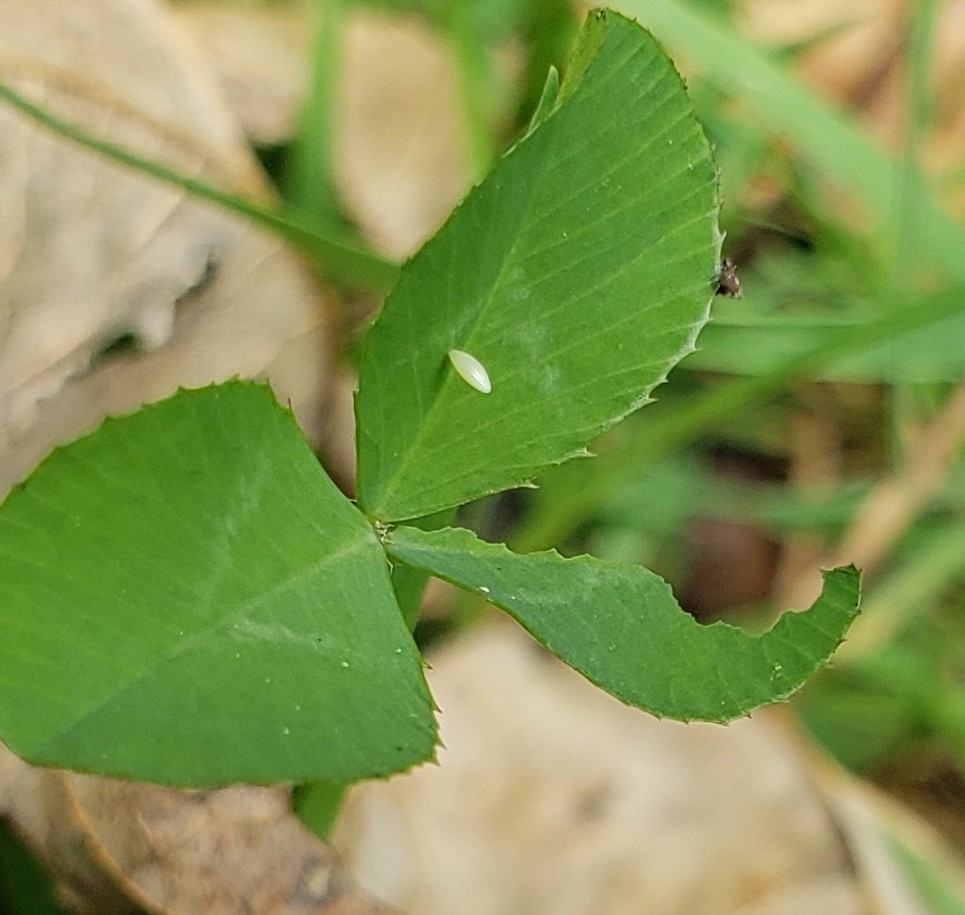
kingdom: Animalia
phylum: Arthropoda
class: Insecta
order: Lepidoptera
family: Pieridae
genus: Colias
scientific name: Colias philodice
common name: Clouded sulphur
